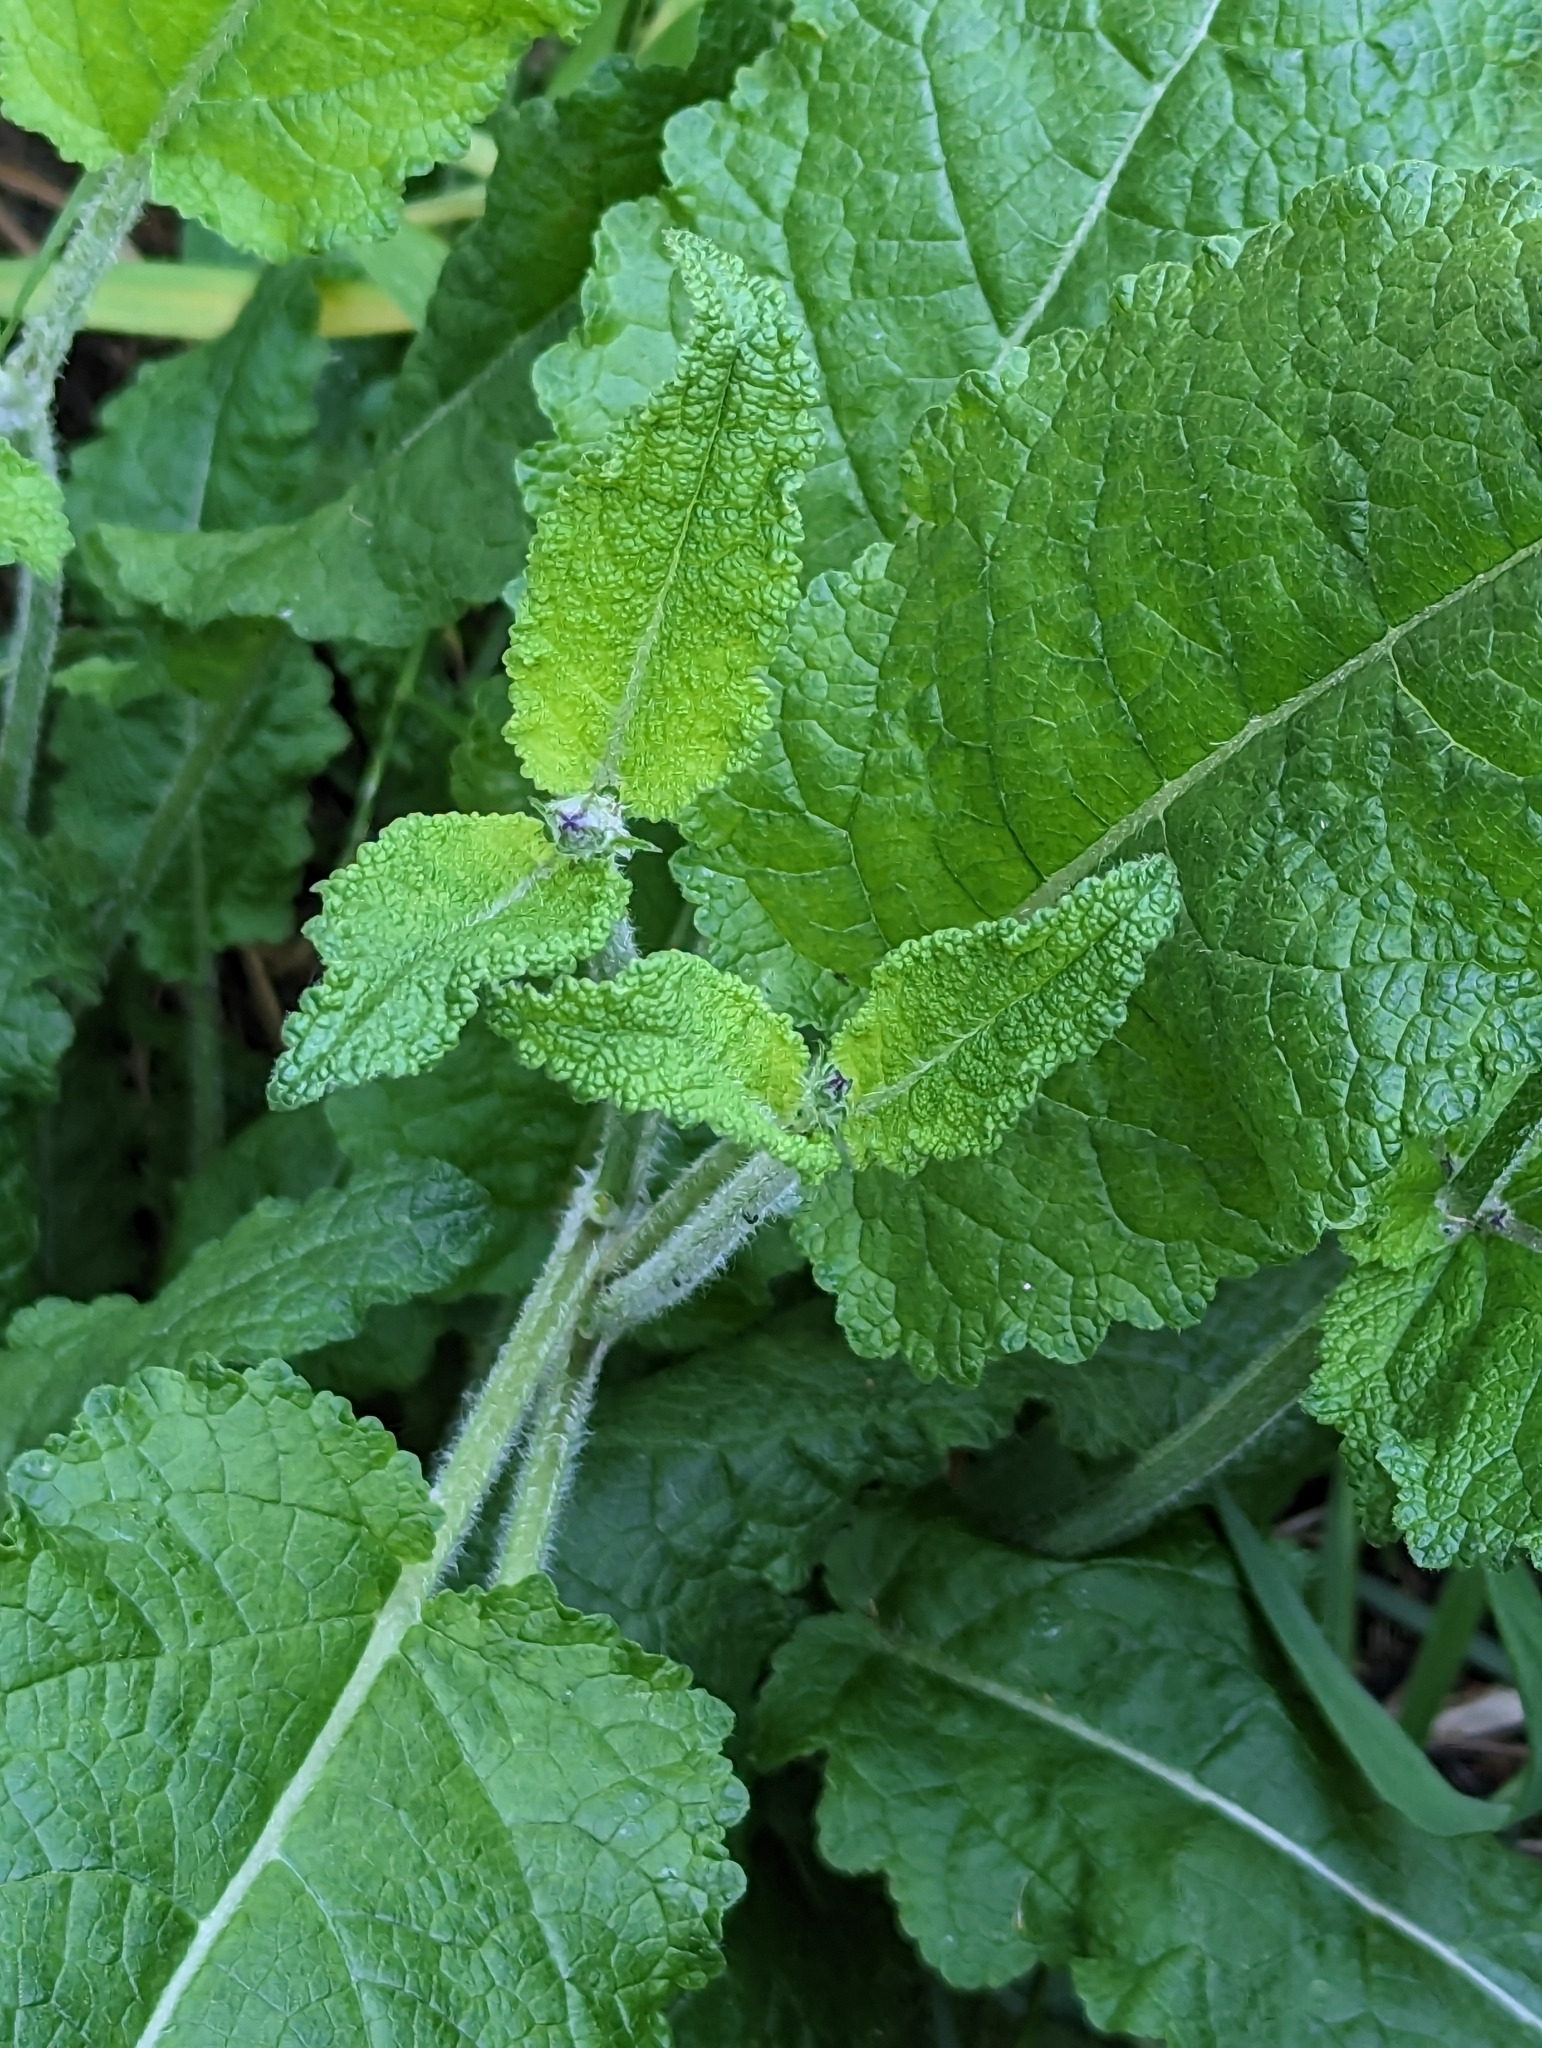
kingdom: Plantae
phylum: Tracheophyta
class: Magnoliopsida
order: Lamiales
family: Lamiaceae
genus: Salvia
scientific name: Salvia pratensis
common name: Meadow sage
